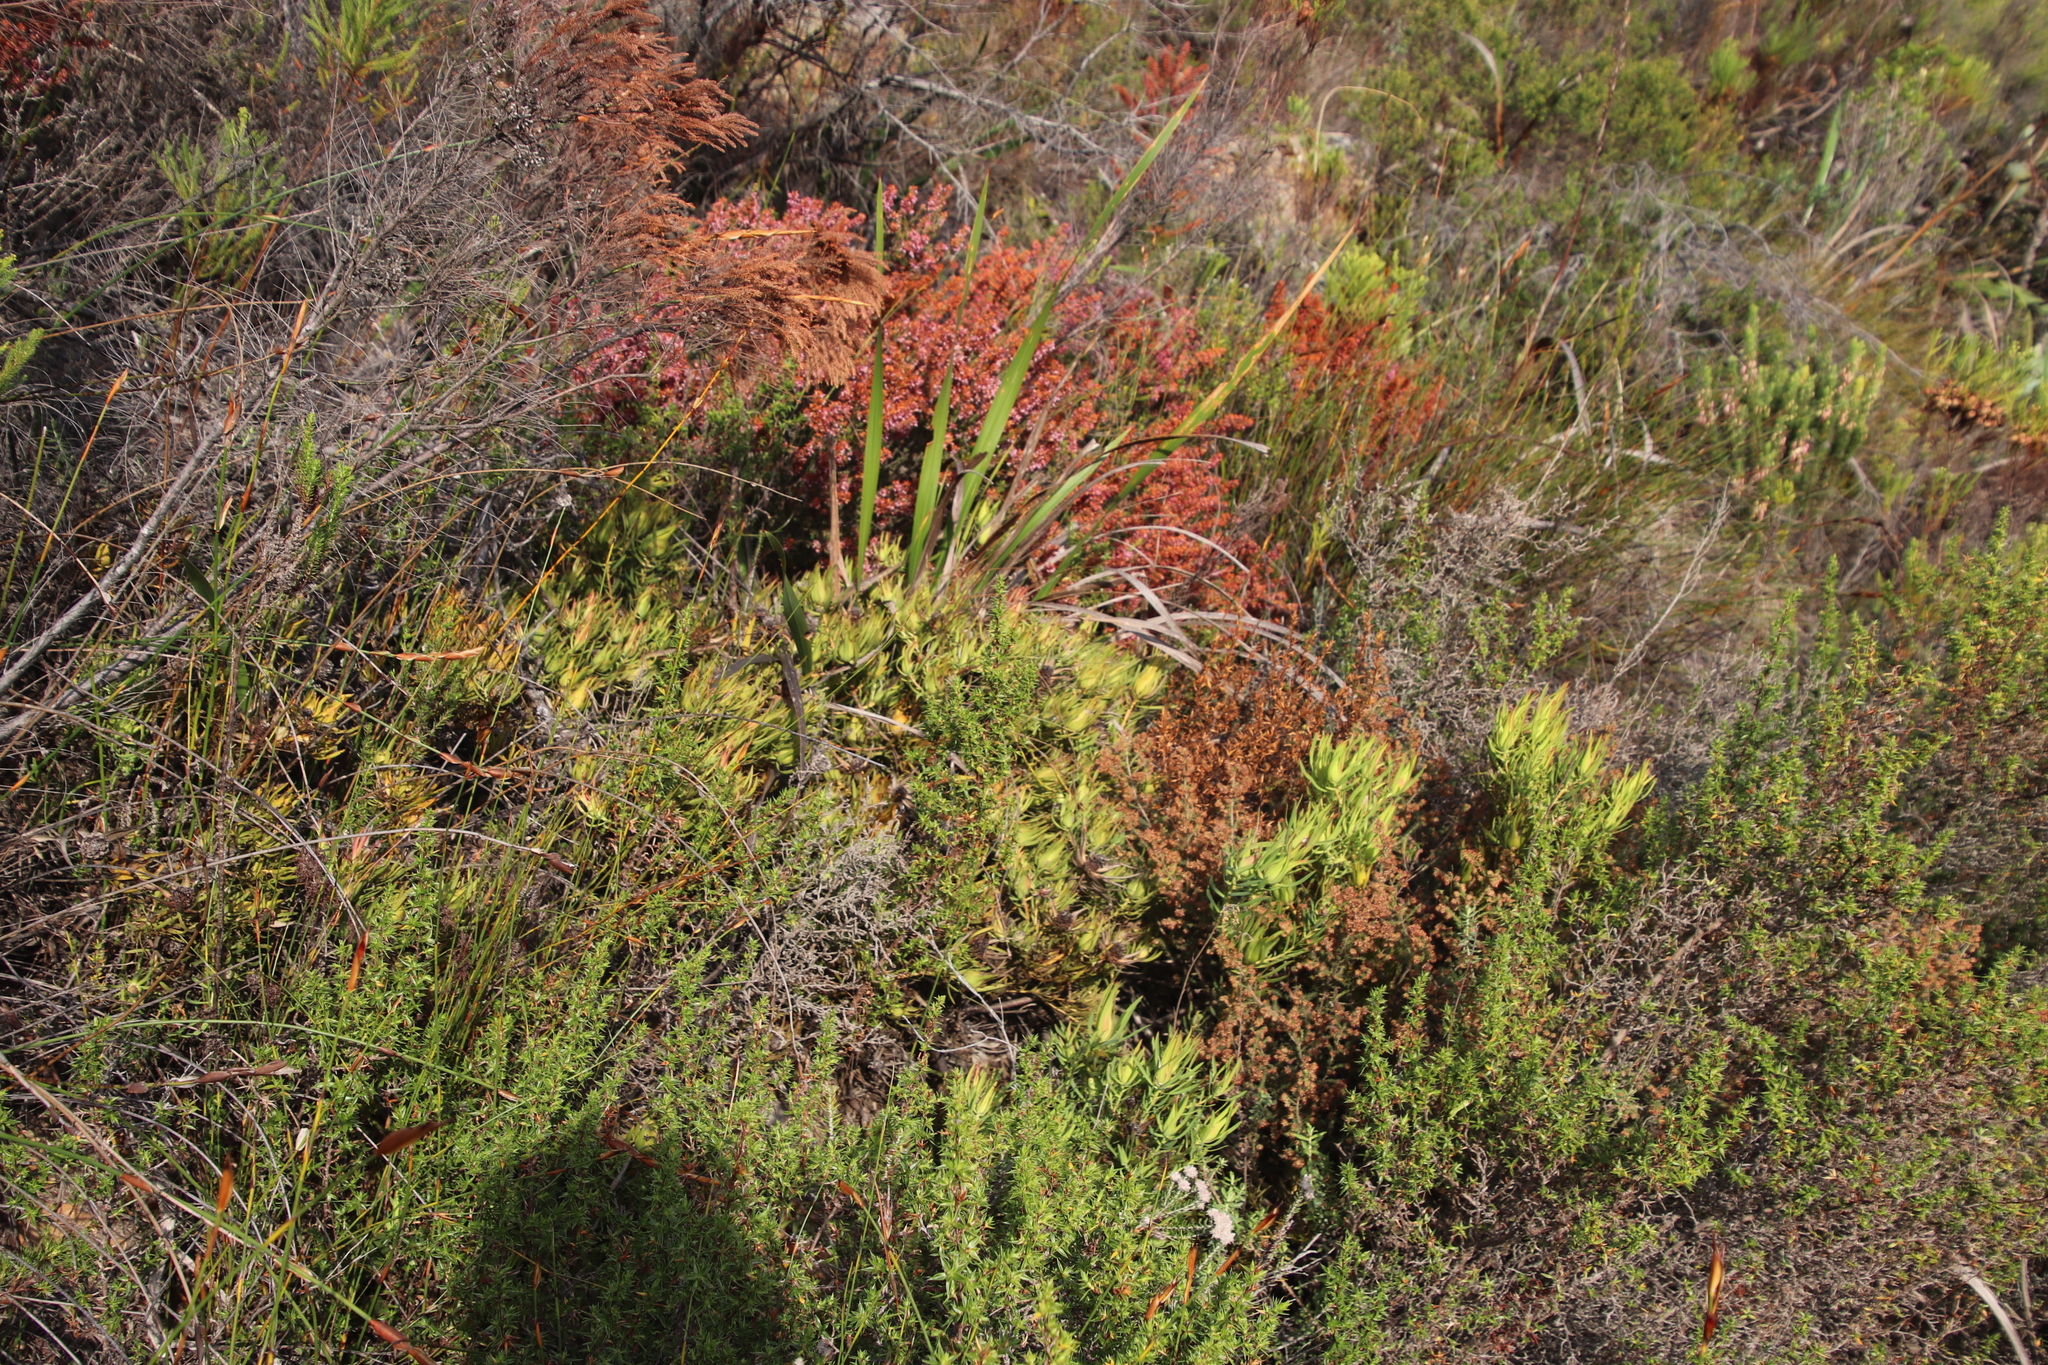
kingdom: Plantae
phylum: Tracheophyta
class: Magnoliopsida
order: Proteales
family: Proteaceae
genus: Leucadendron
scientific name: Leucadendron salignum
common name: Common sunshine conebush
